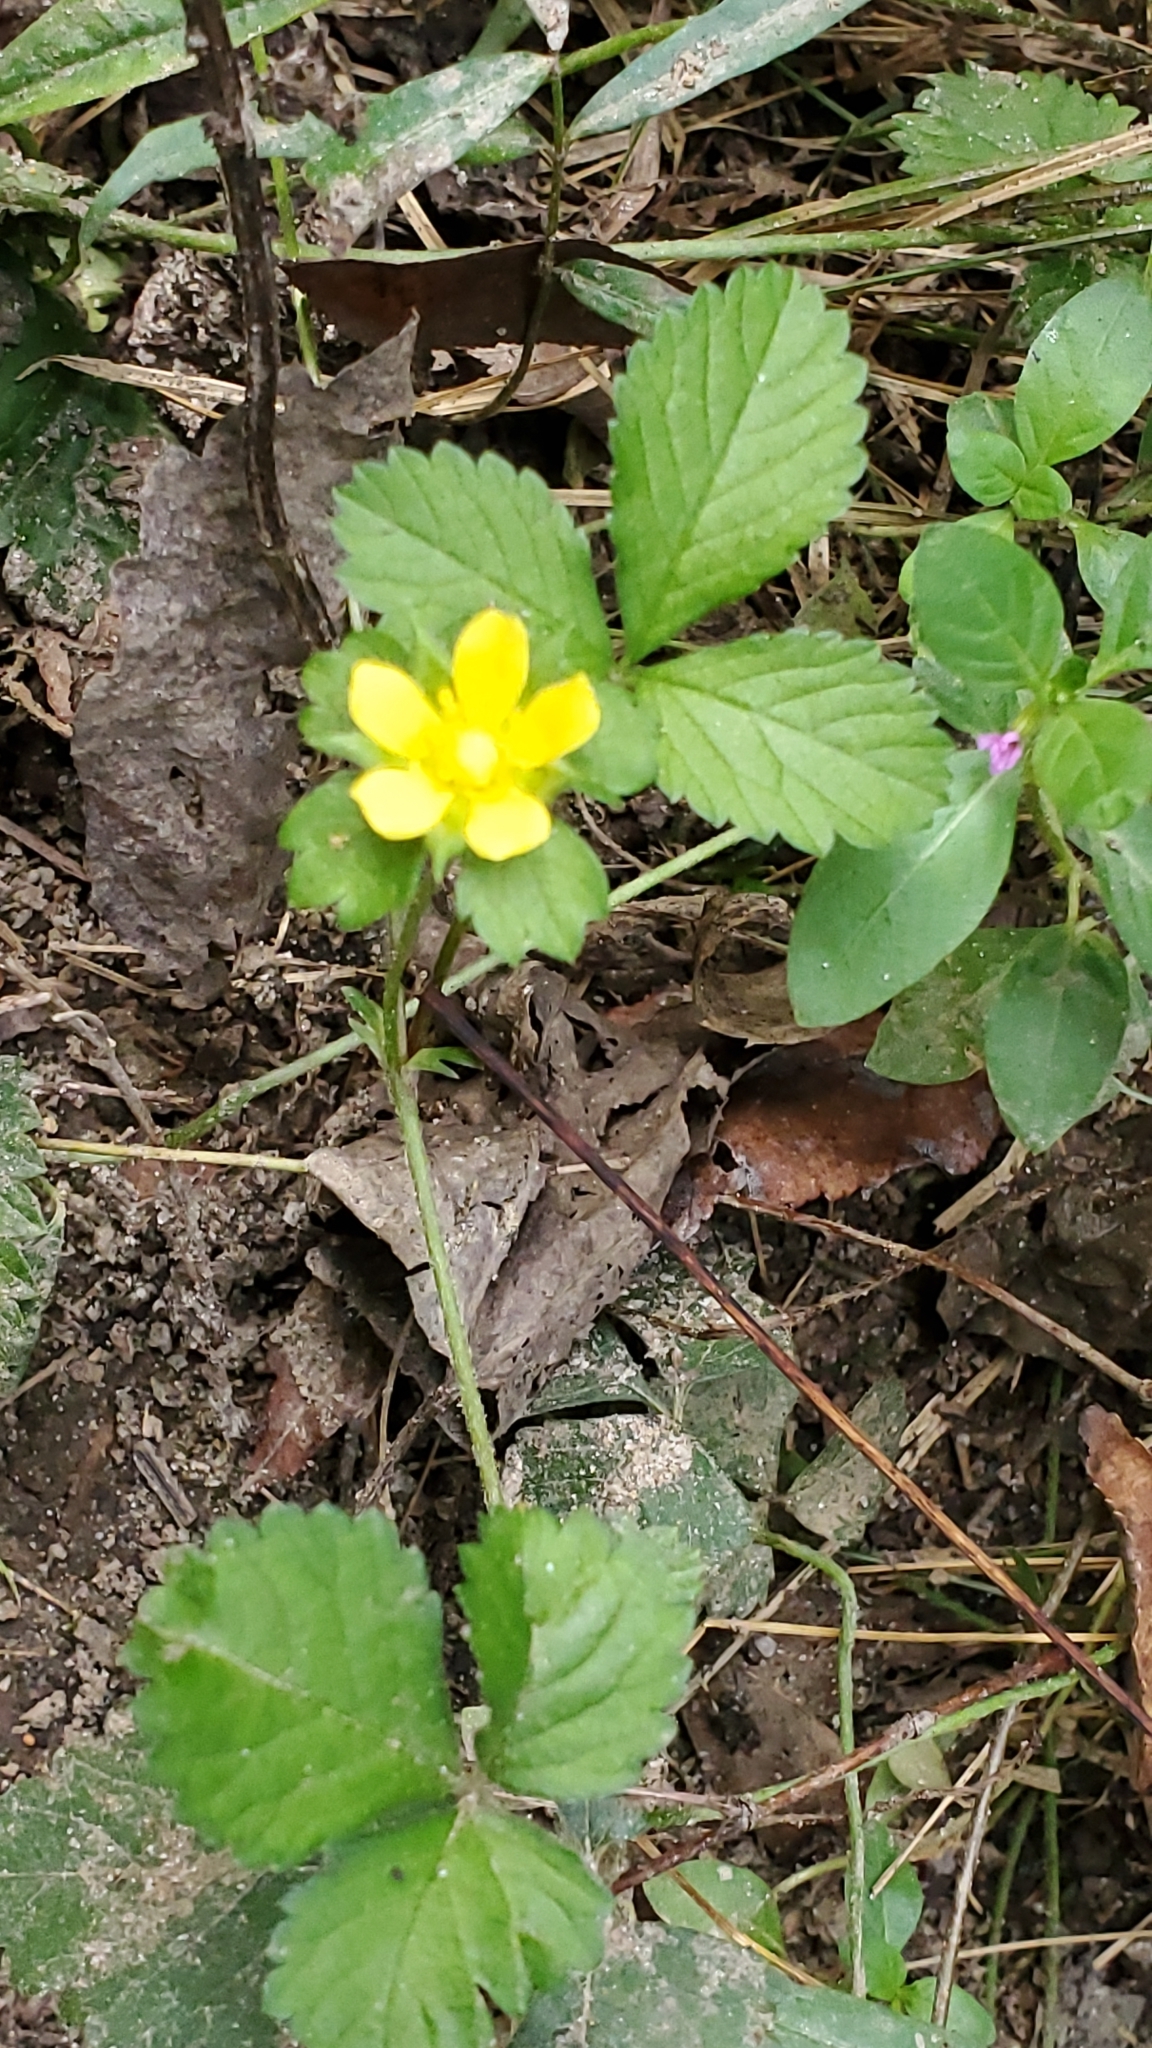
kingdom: Plantae
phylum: Tracheophyta
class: Magnoliopsida
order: Rosales
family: Rosaceae
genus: Potentilla
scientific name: Potentilla indica
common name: Yellow-flowered strawberry
